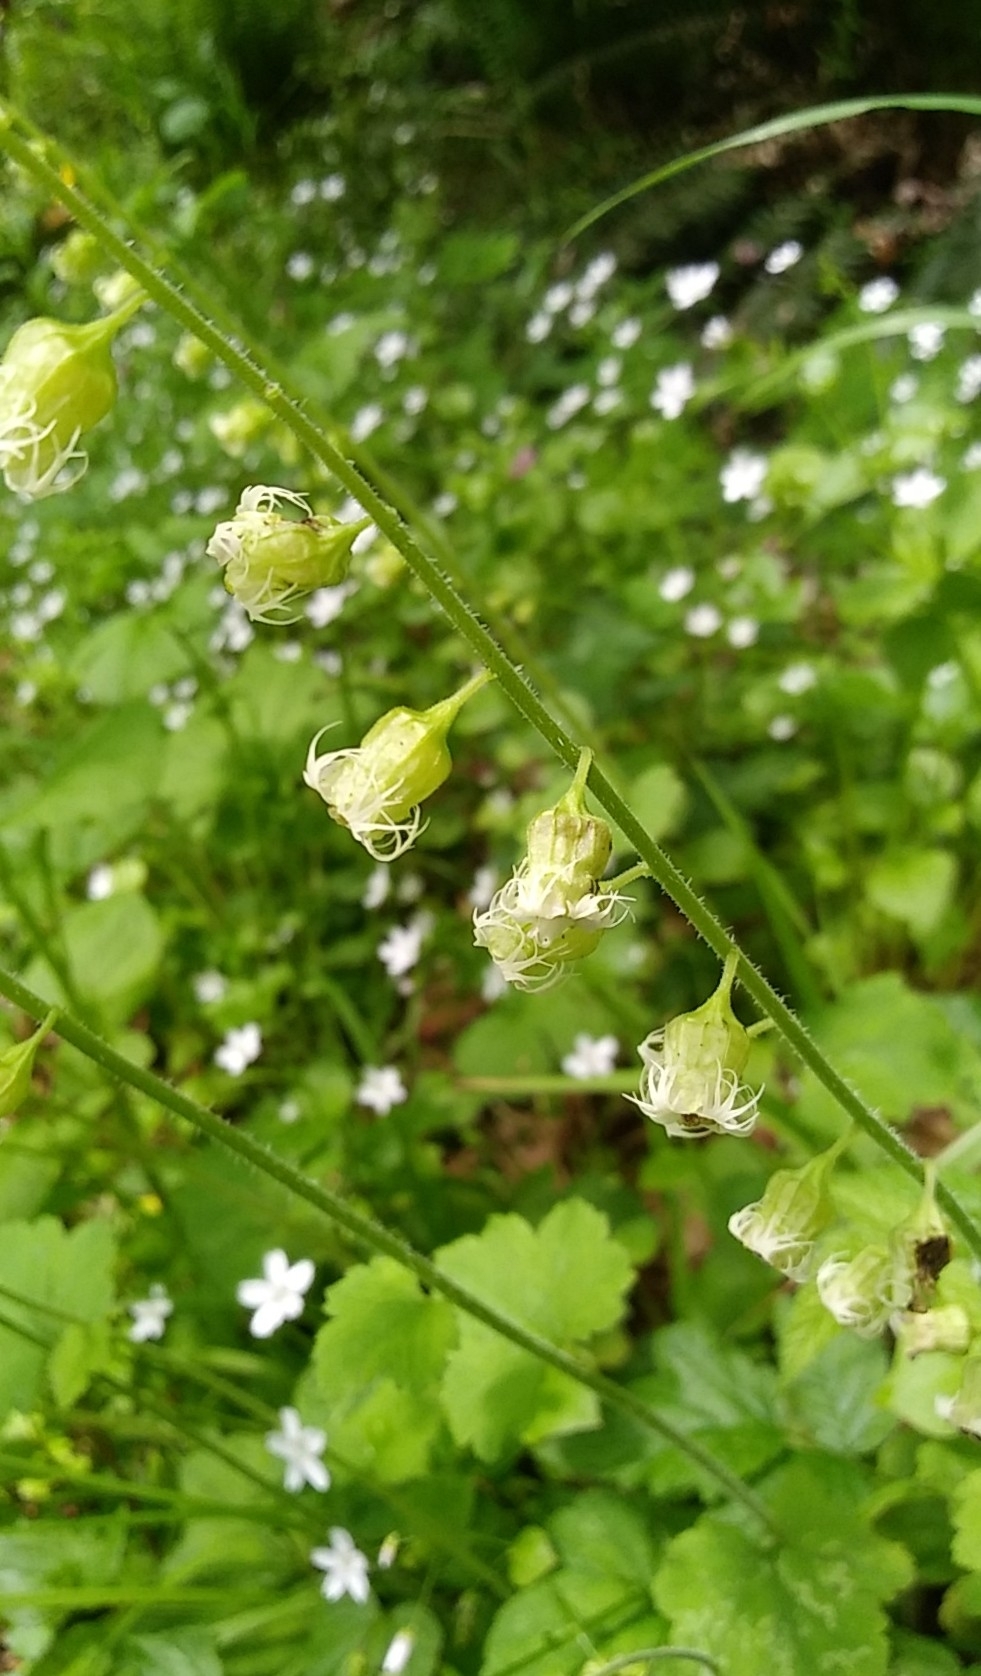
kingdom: Plantae
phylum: Tracheophyta
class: Magnoliopsida
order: Saxifragales
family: Saxifragaceae
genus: Tellima
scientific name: Tellima grandiflora
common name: Fringecups
